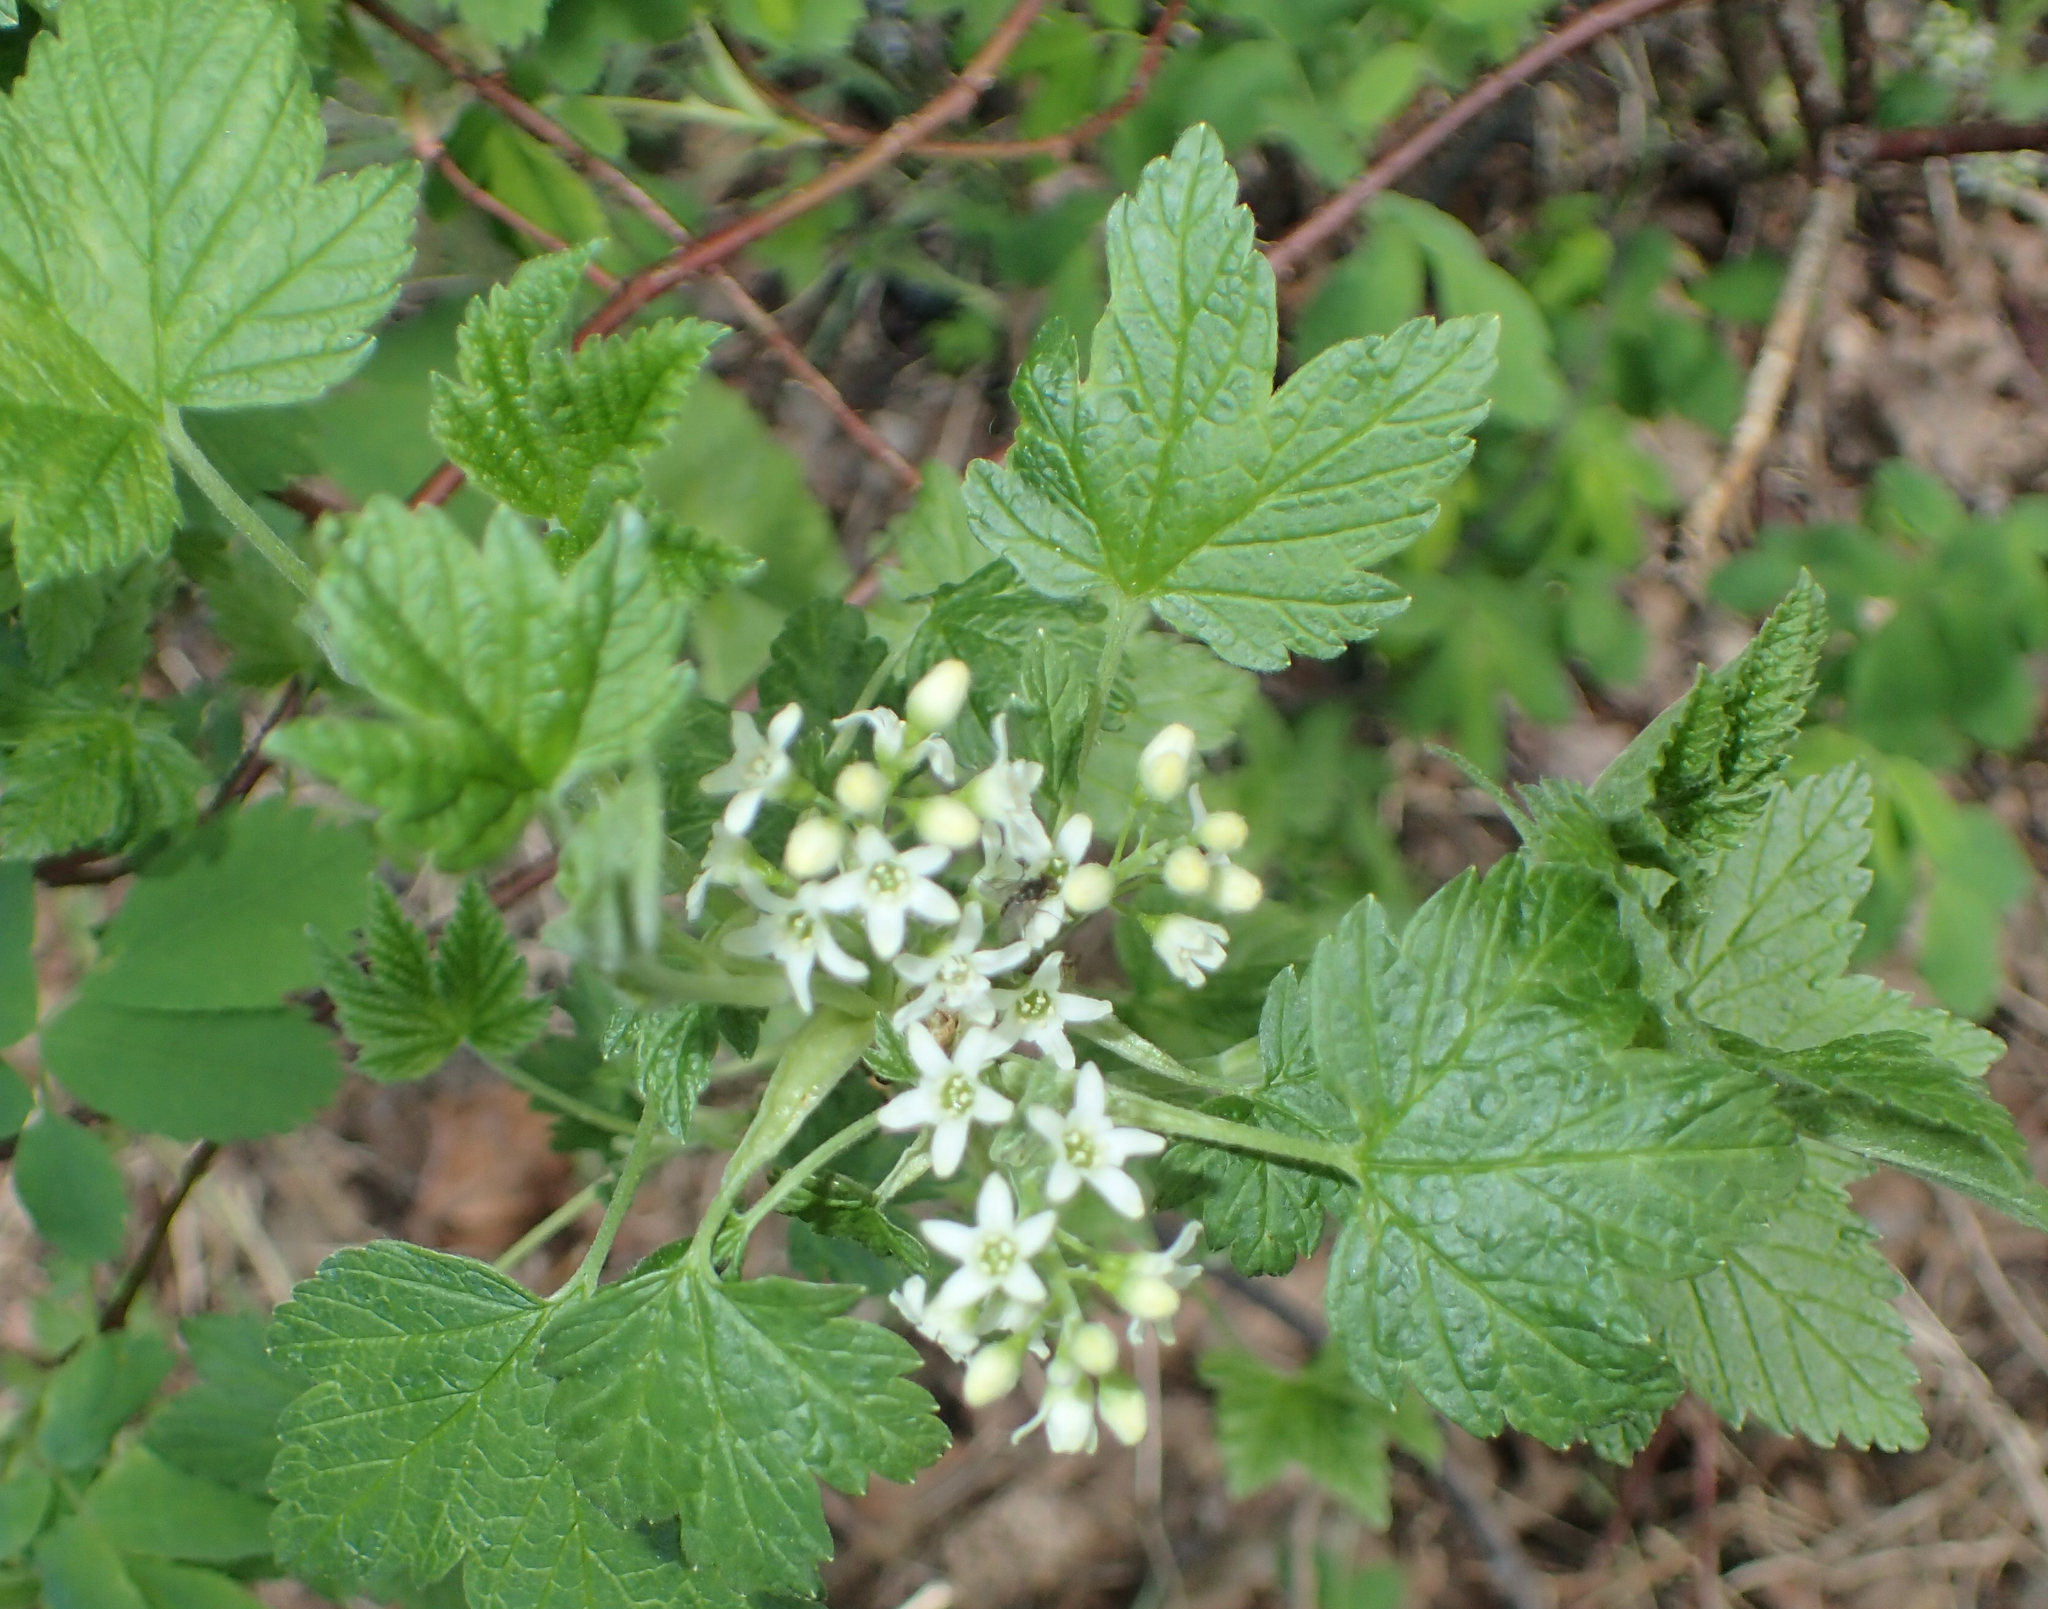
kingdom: Plantae
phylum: Tracheophyta
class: Magnoliopsida
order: Saxifragales
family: Grossulariaceae
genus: Ribes
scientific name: Ribes hudsonianum
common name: Northern black currant
